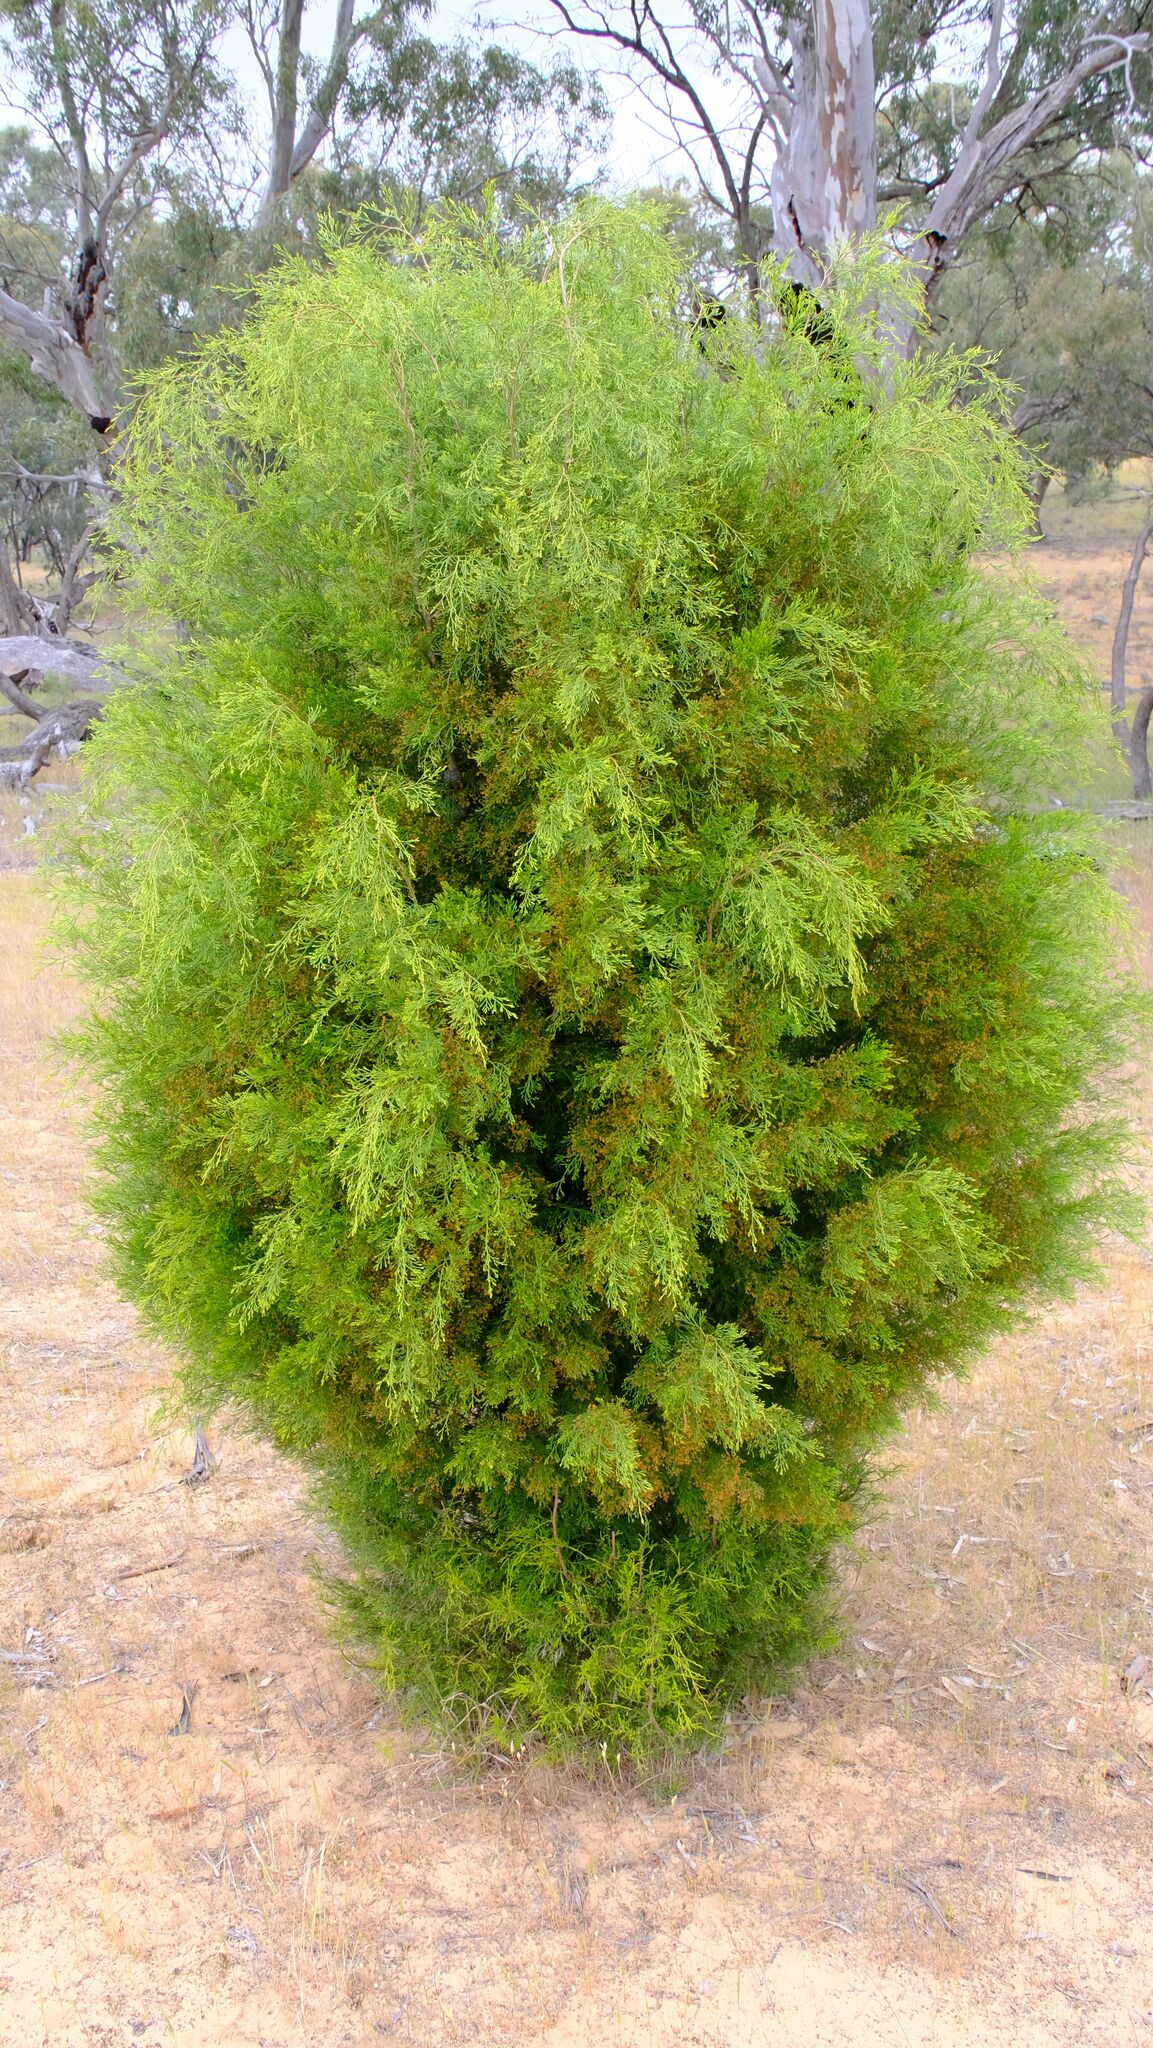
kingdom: Plantae
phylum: Tracheophyta
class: Pinopsida
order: Pinales
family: Cupressaceae
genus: Callitris
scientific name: Callitris verrucosa
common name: Scrub cypress-pine
